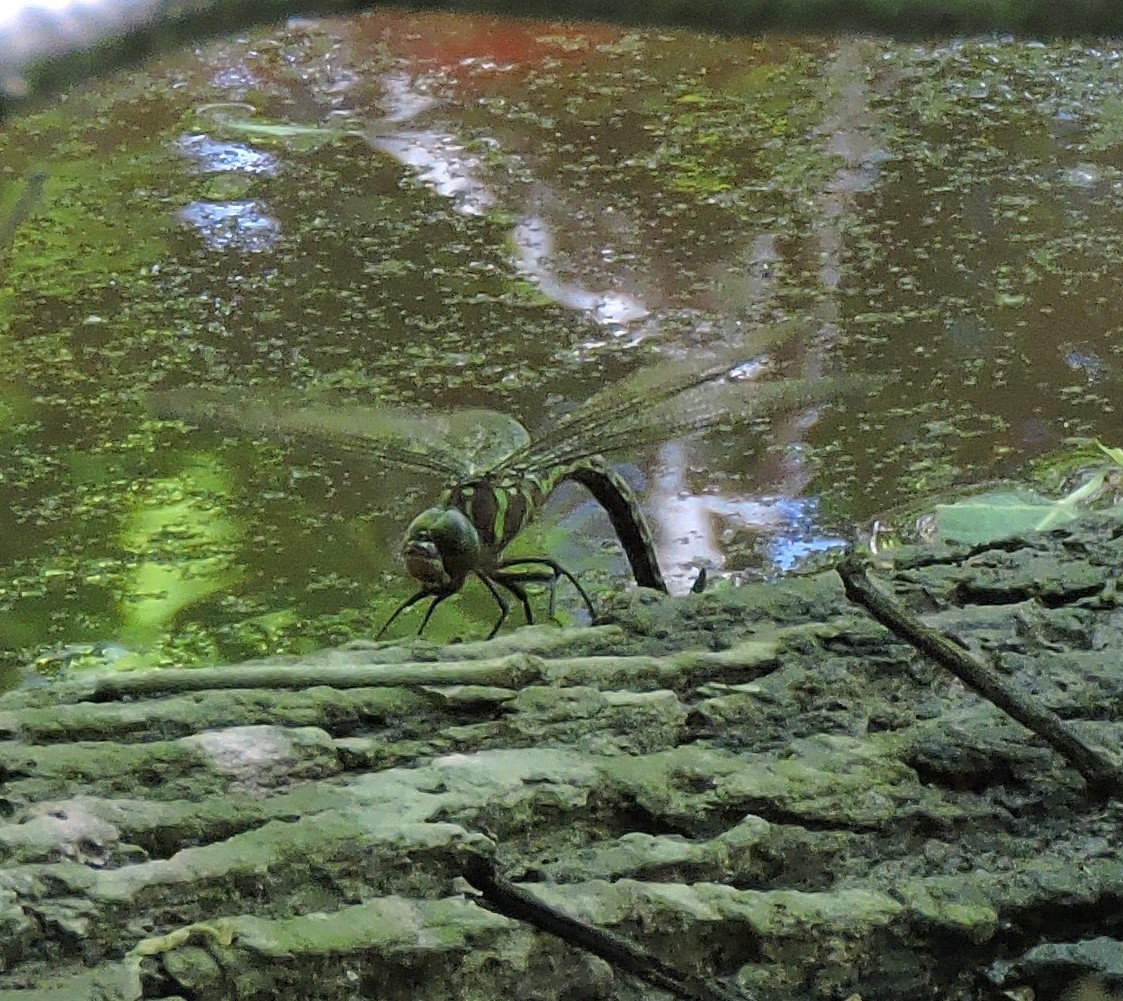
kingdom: Animalia
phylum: Arthropoda
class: Insecta
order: Odonata
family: Aeshnidae
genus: Epiaeschna
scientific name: Epiaeschna heros
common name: Swamp darner
